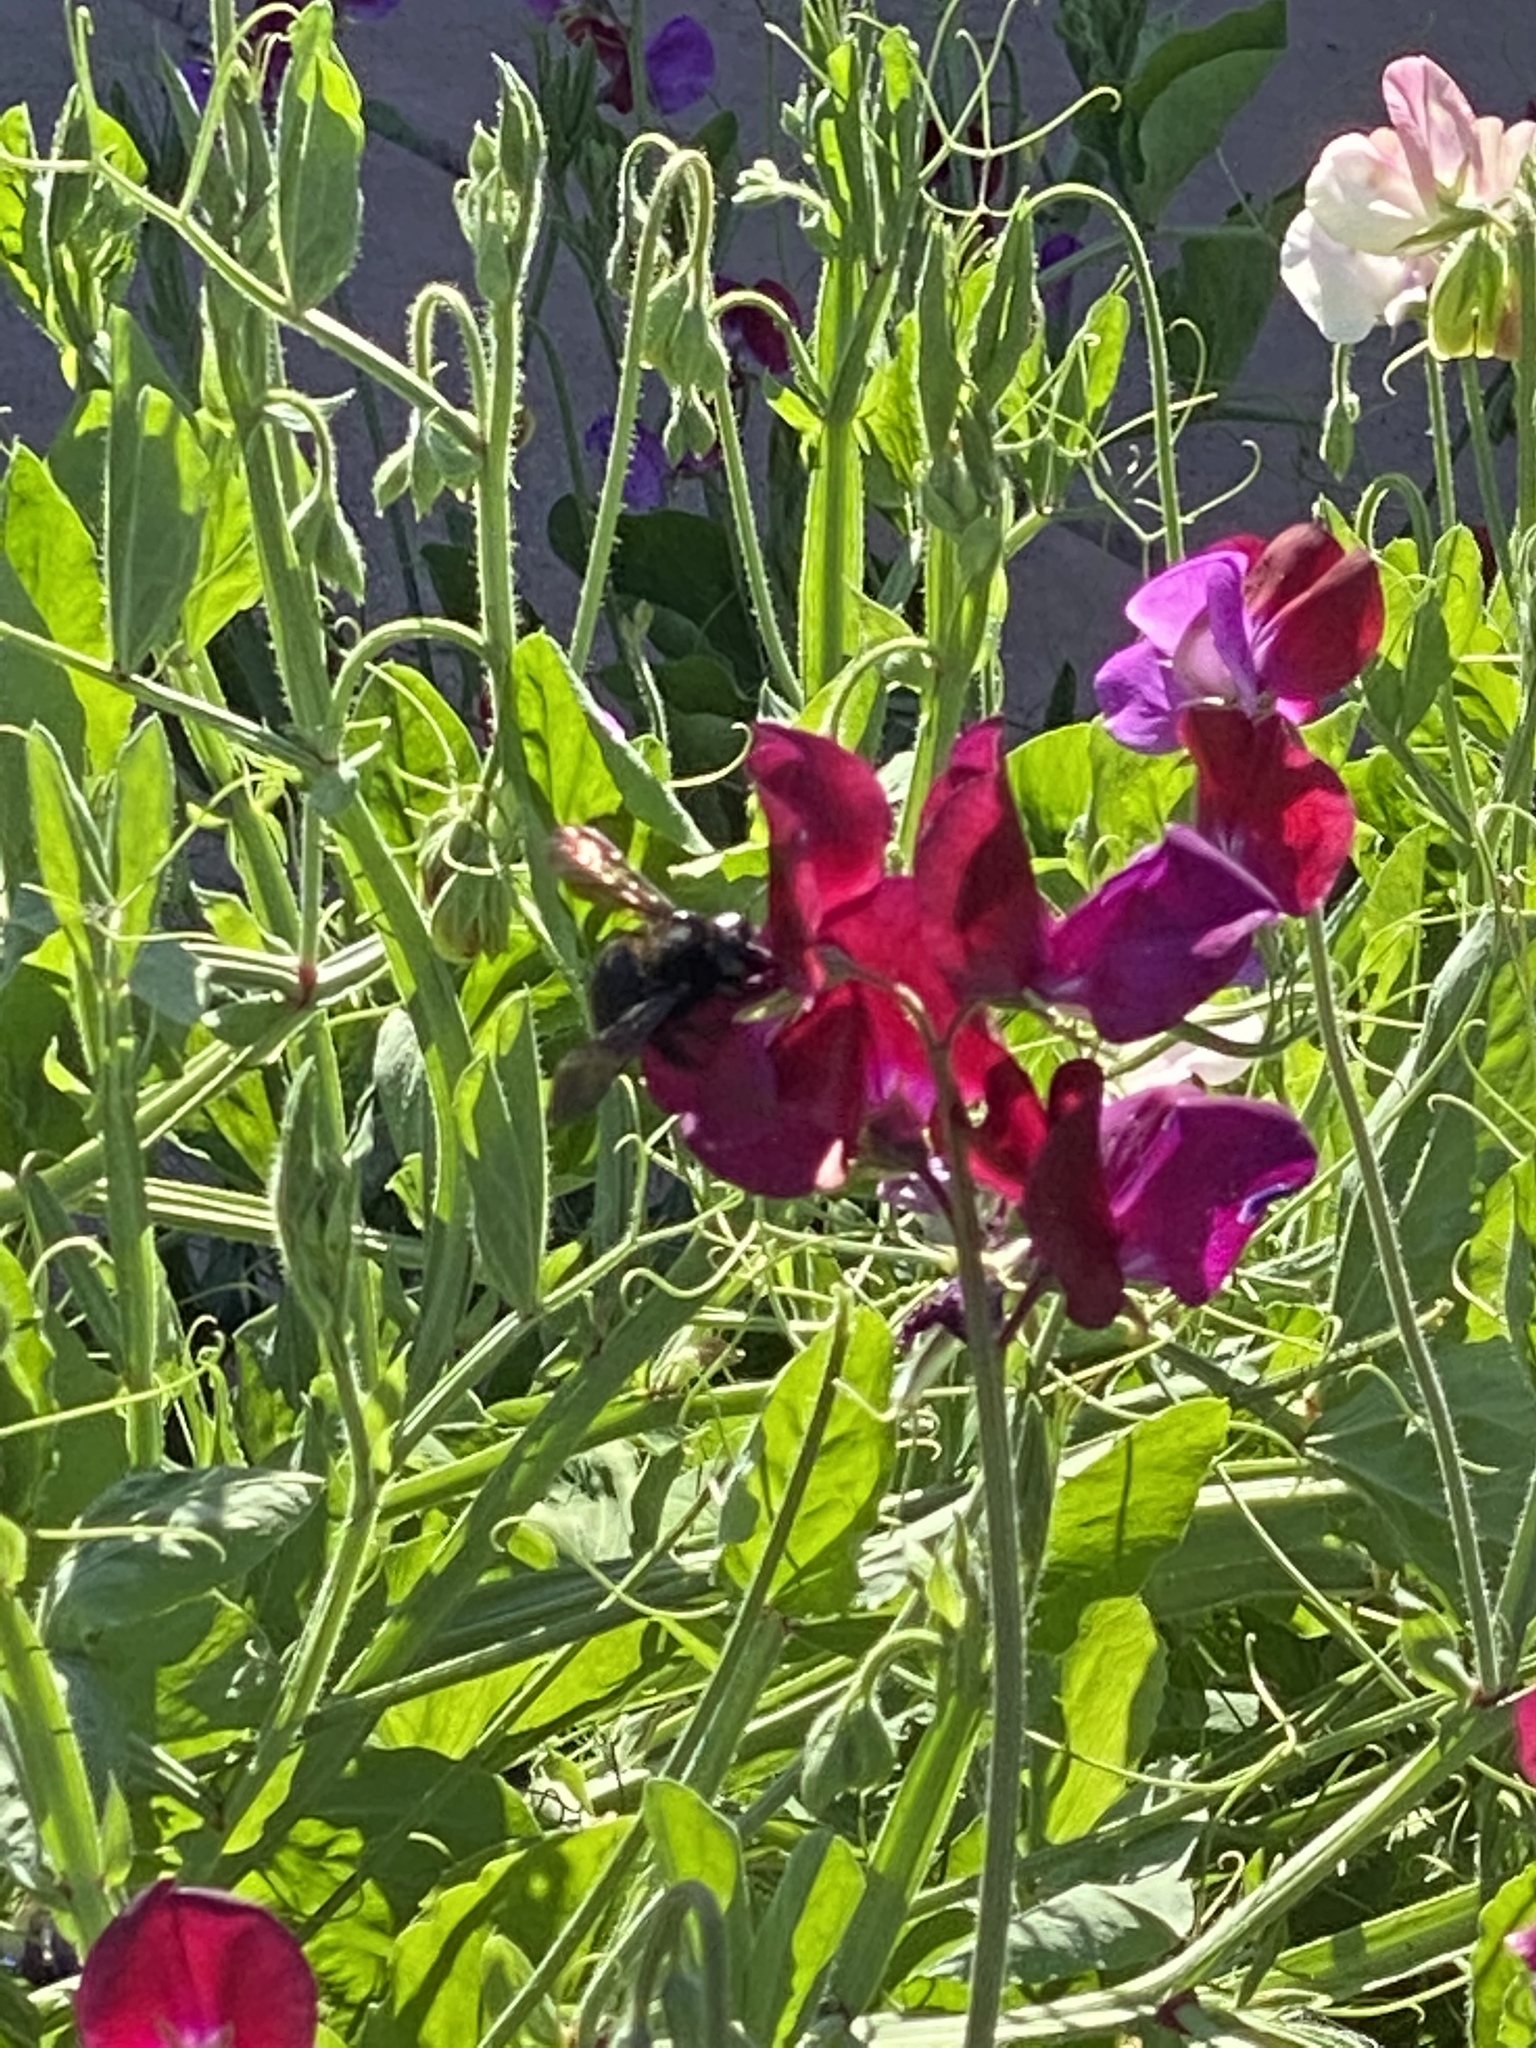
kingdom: Animalia
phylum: Arthropoda
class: Insecta
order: Hymenoptera
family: Apidae
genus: Xylocopa
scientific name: Xylocopa sonorina
